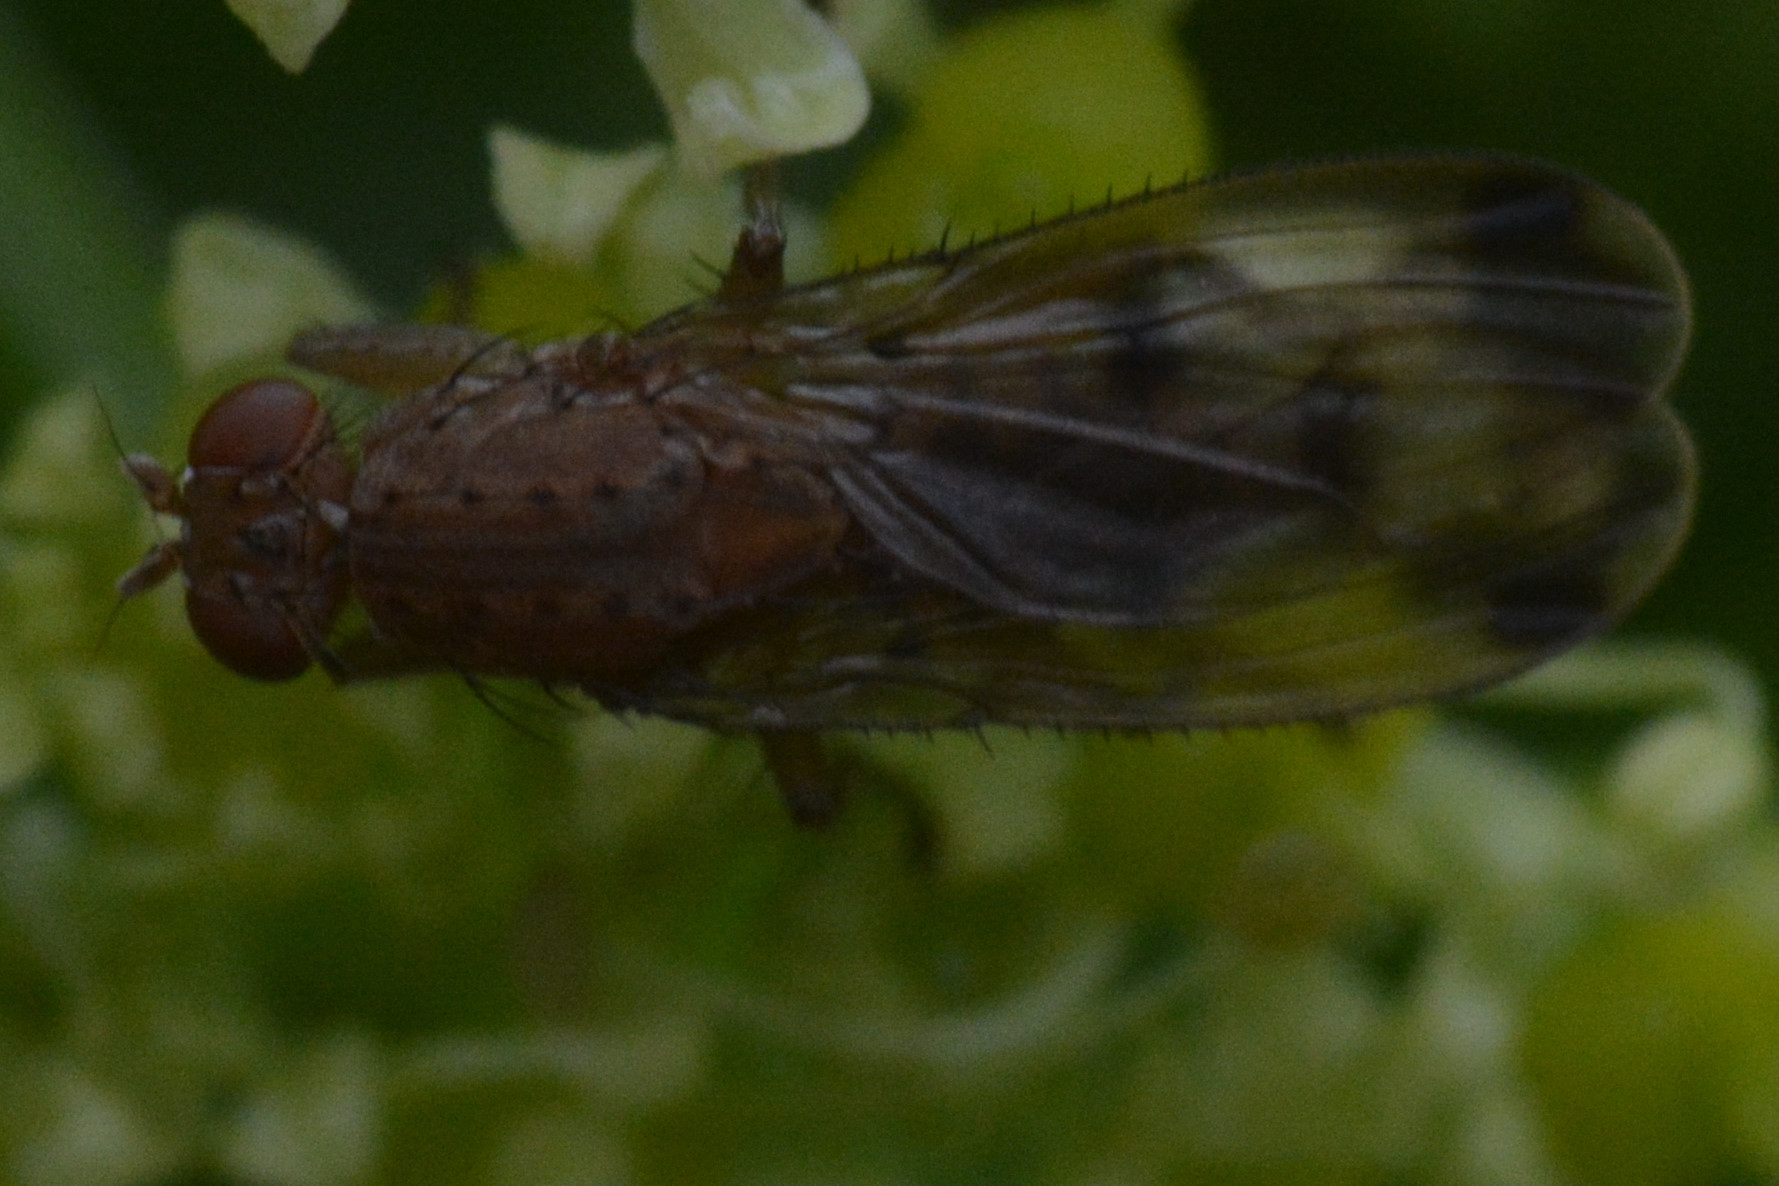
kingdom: Animalia
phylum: Arthropoda
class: Insecta
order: Diptera
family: Heleomyzidae
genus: Suillia
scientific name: Suillia variegata
